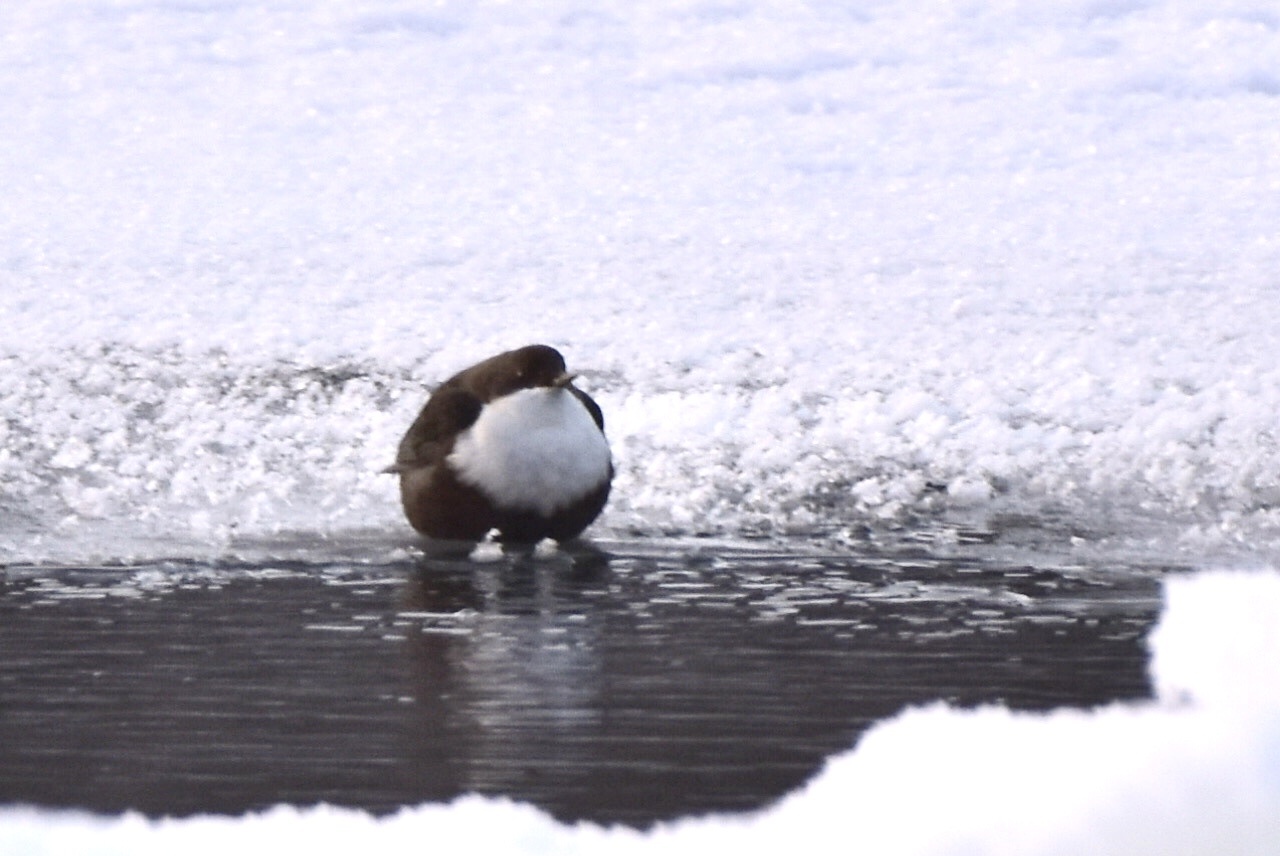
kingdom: Animalia
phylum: Chordata
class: Aves
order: Passeriformes
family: Cinclidae
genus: Cinclus
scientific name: Cinclus cinclus
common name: White-throated dipper
